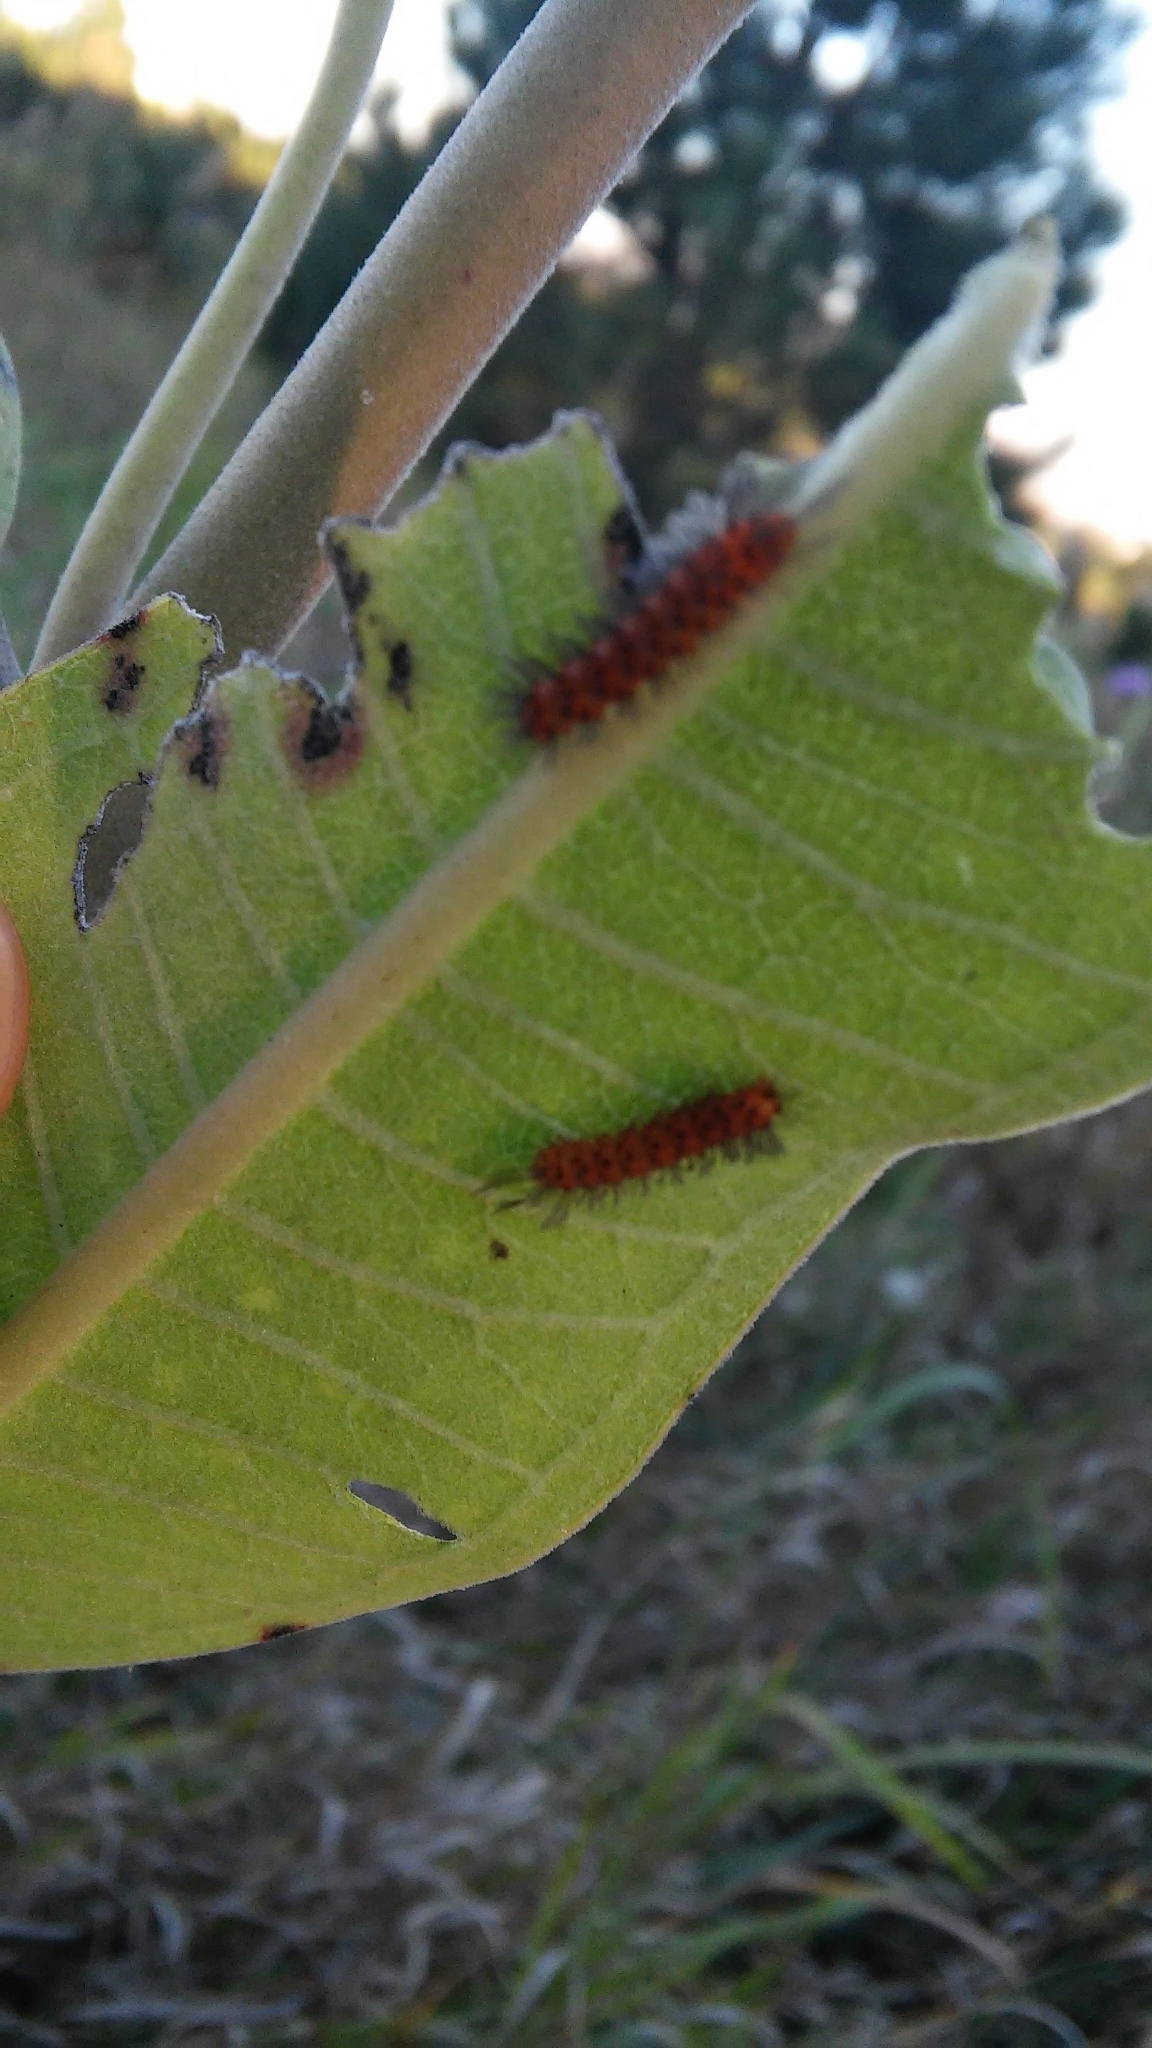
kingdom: Animalia
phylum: Arthropoda
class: Insecta
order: Lepidoptera
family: Erebidae
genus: Cycnia
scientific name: Cycnia collaris
